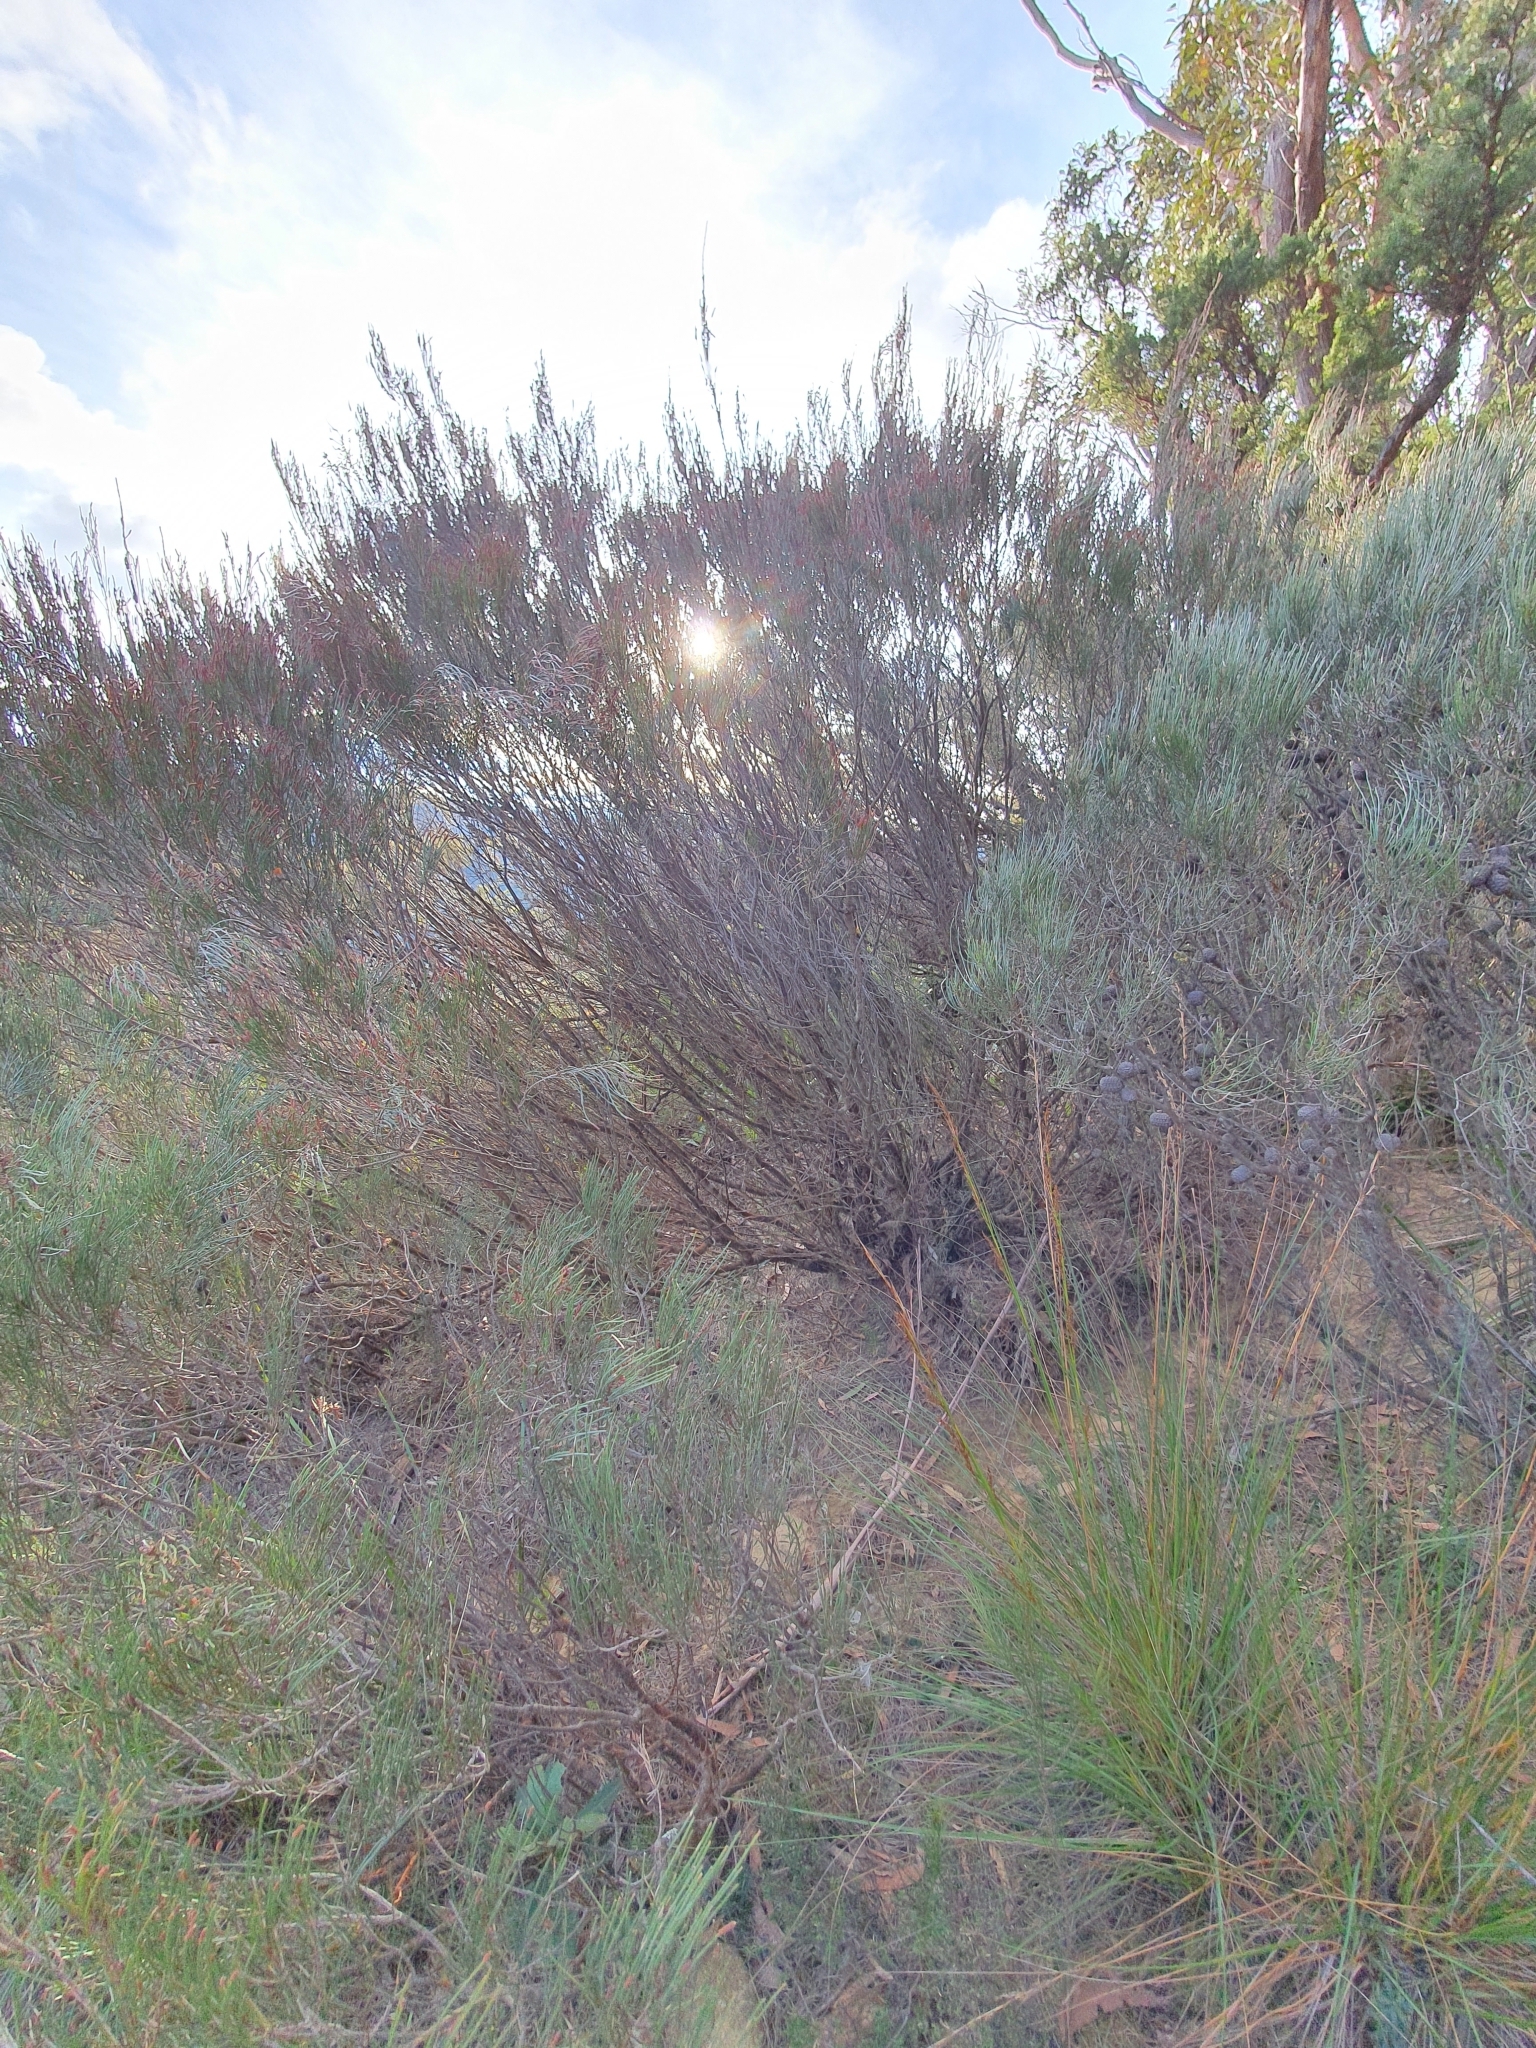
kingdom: Plantae
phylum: Tracheophyta
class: Magnoliopsida
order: Fagales
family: Casuarinaceae
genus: Allocasuarina
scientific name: Allocasuarina nana
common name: Stunted she-oak
